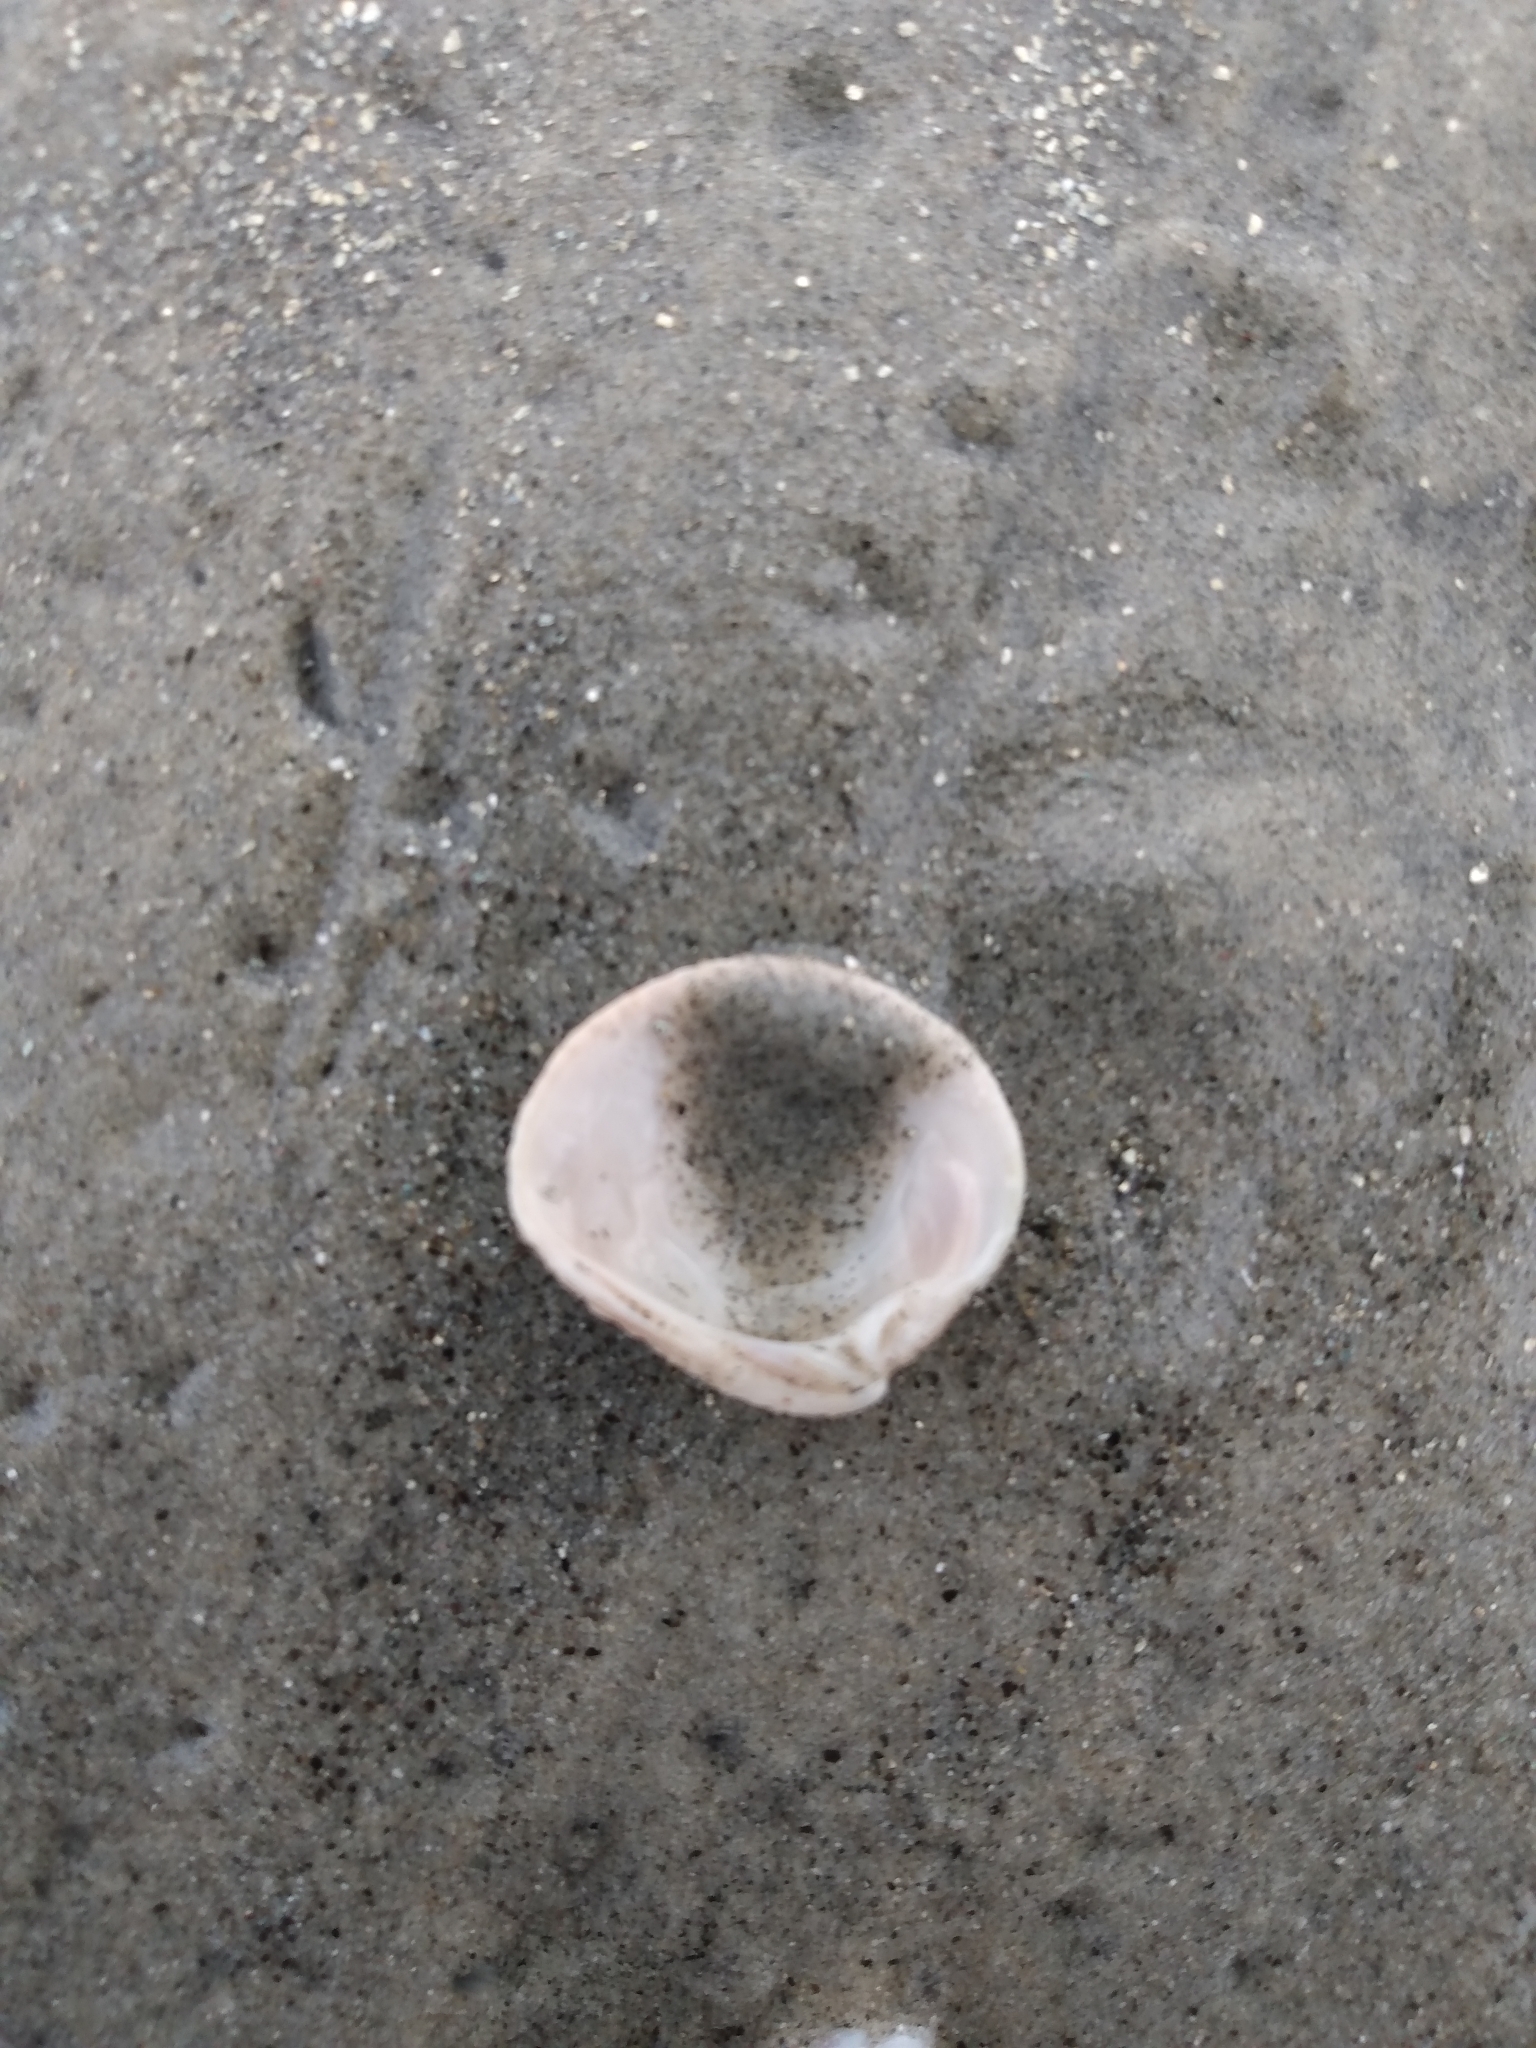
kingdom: Animalia
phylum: Mollusca
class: Bivalvia
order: Venerida
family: Veneridae
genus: Chione
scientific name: Chione californiensis
